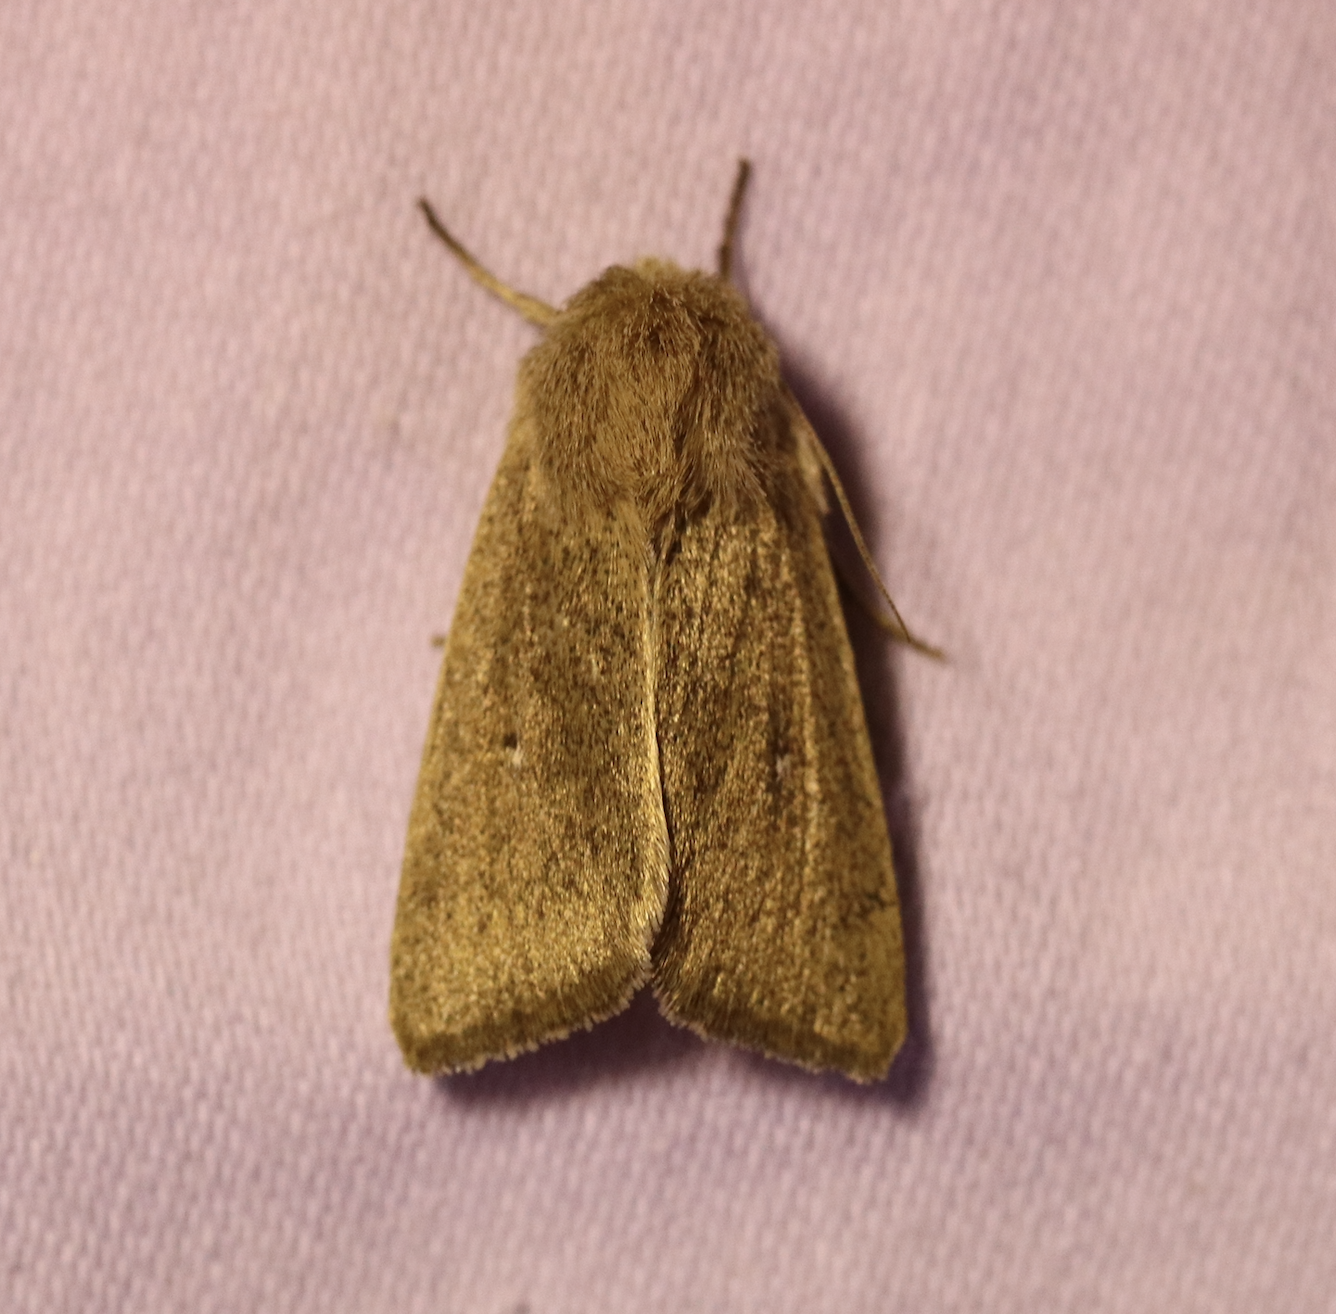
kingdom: Animalia
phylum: Arthropoda
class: Insecta
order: Lepidoptera
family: Noctuidae
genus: Mythimna
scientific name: Mythimna sicula
